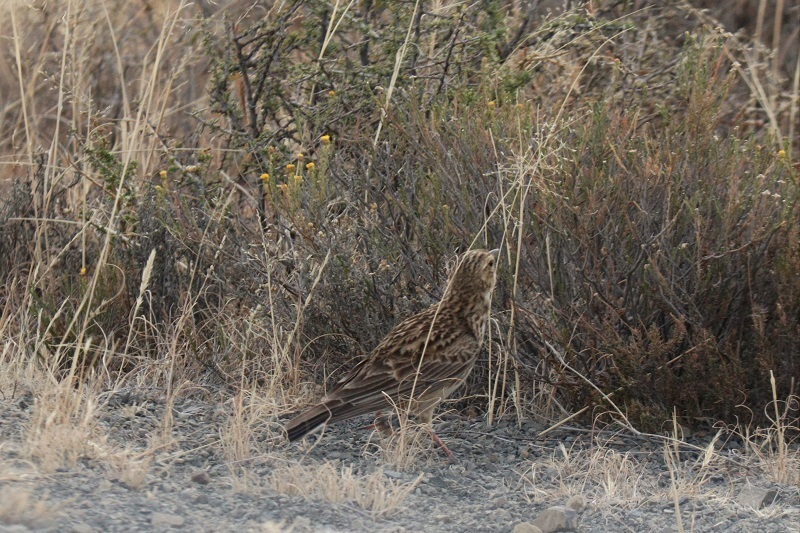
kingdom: Animalia
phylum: Chordata
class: Aves
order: Passeriformes
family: Motacillidae
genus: Anthus
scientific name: Anthus cinnamomeus
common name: African pipit
